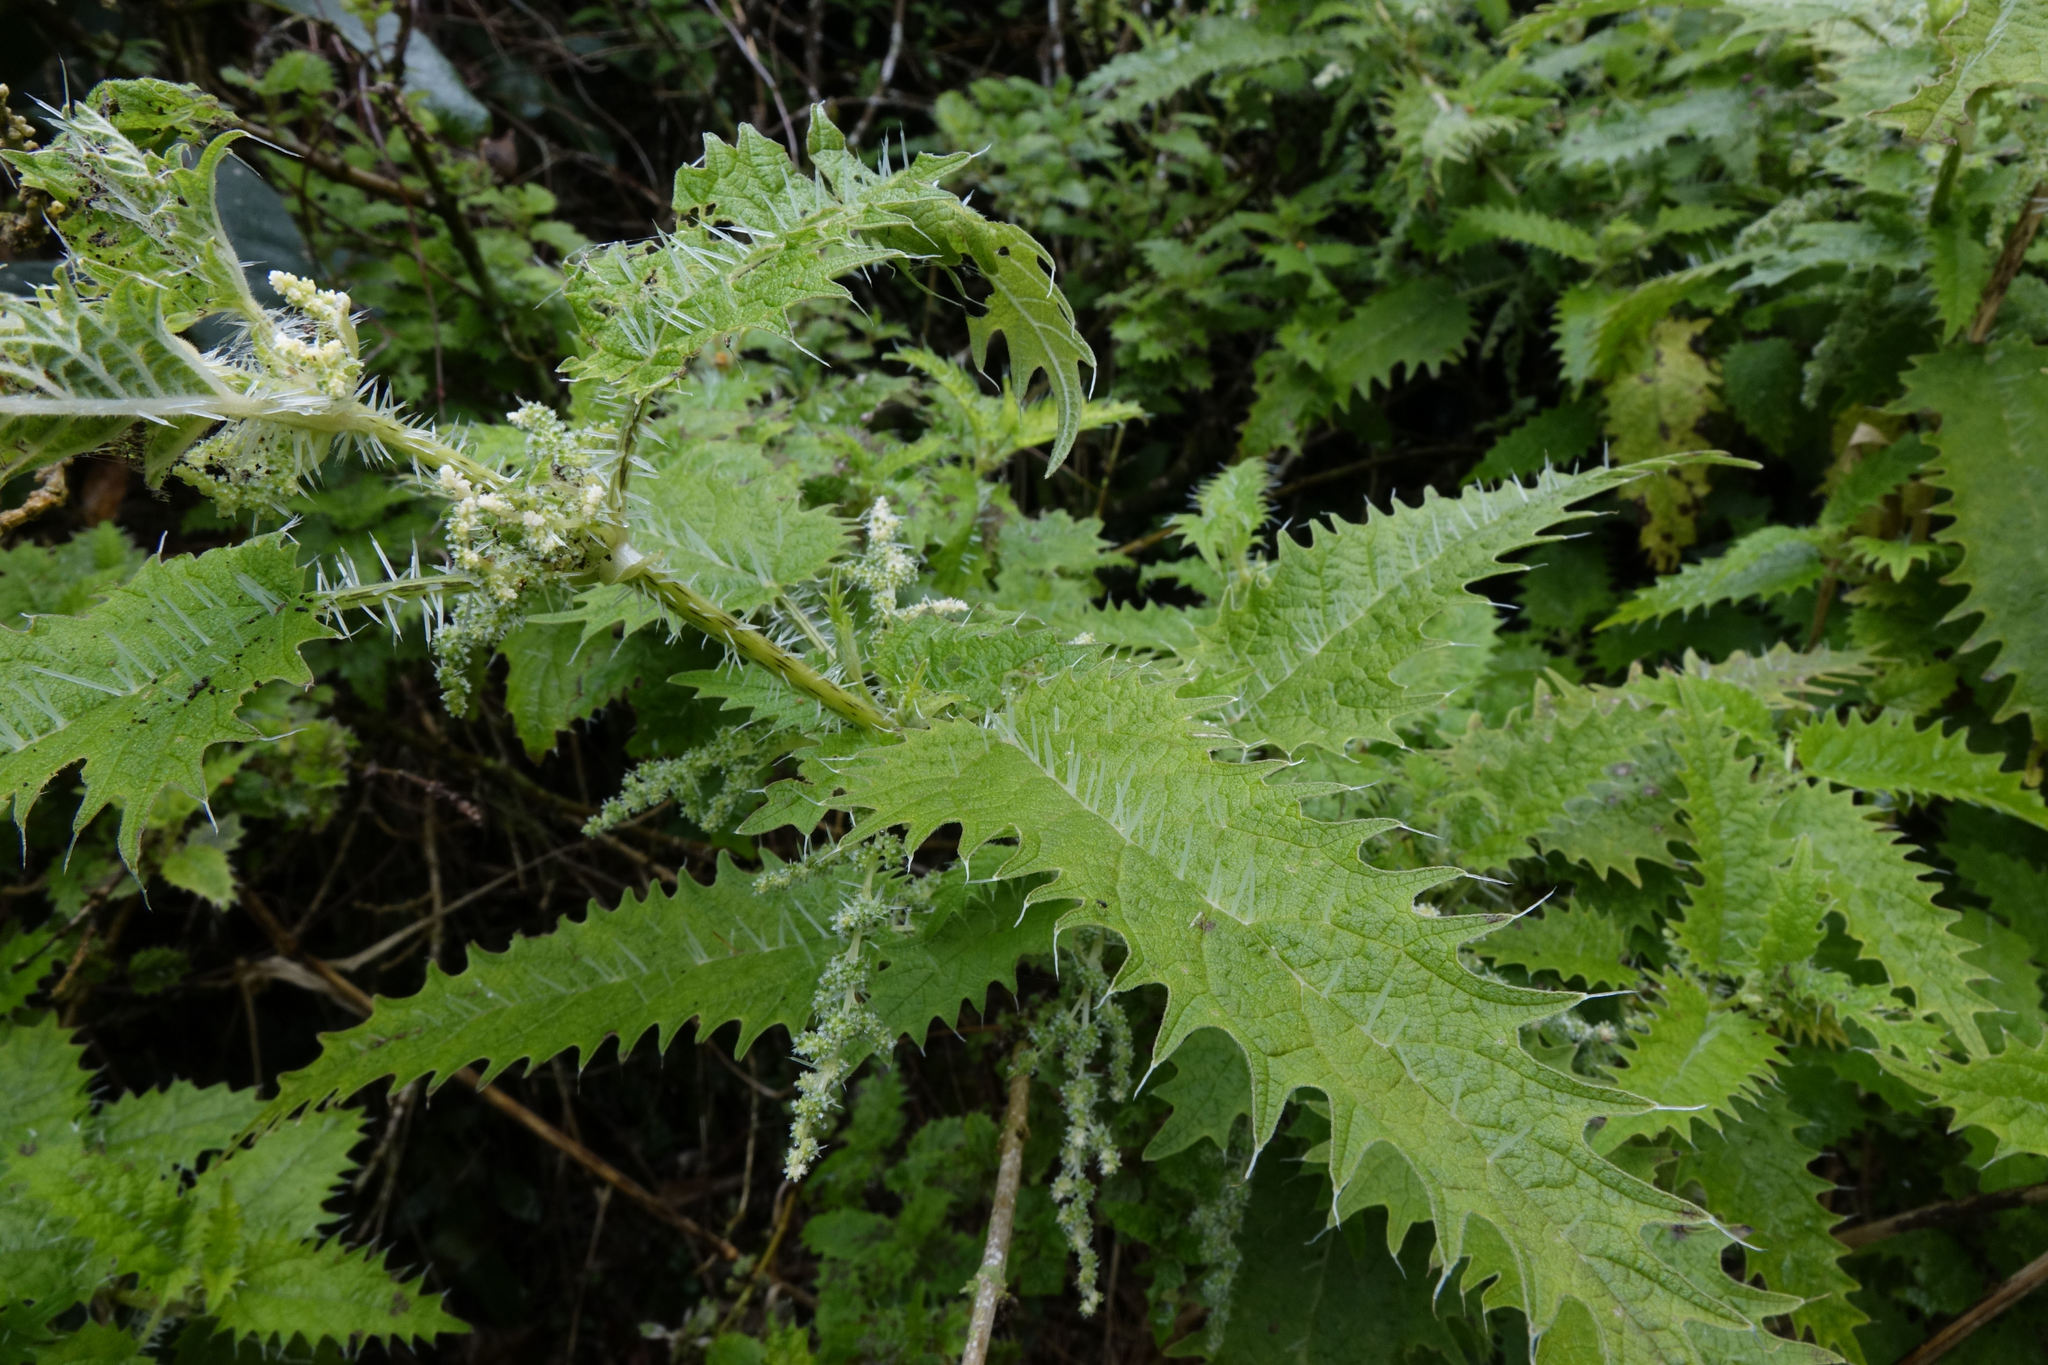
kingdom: Plantae
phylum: Tracheophyta
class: Magnoliopsida
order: Rosales
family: Urticaceae
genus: Urtica
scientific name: Urtica ferox
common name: Tree nettle
